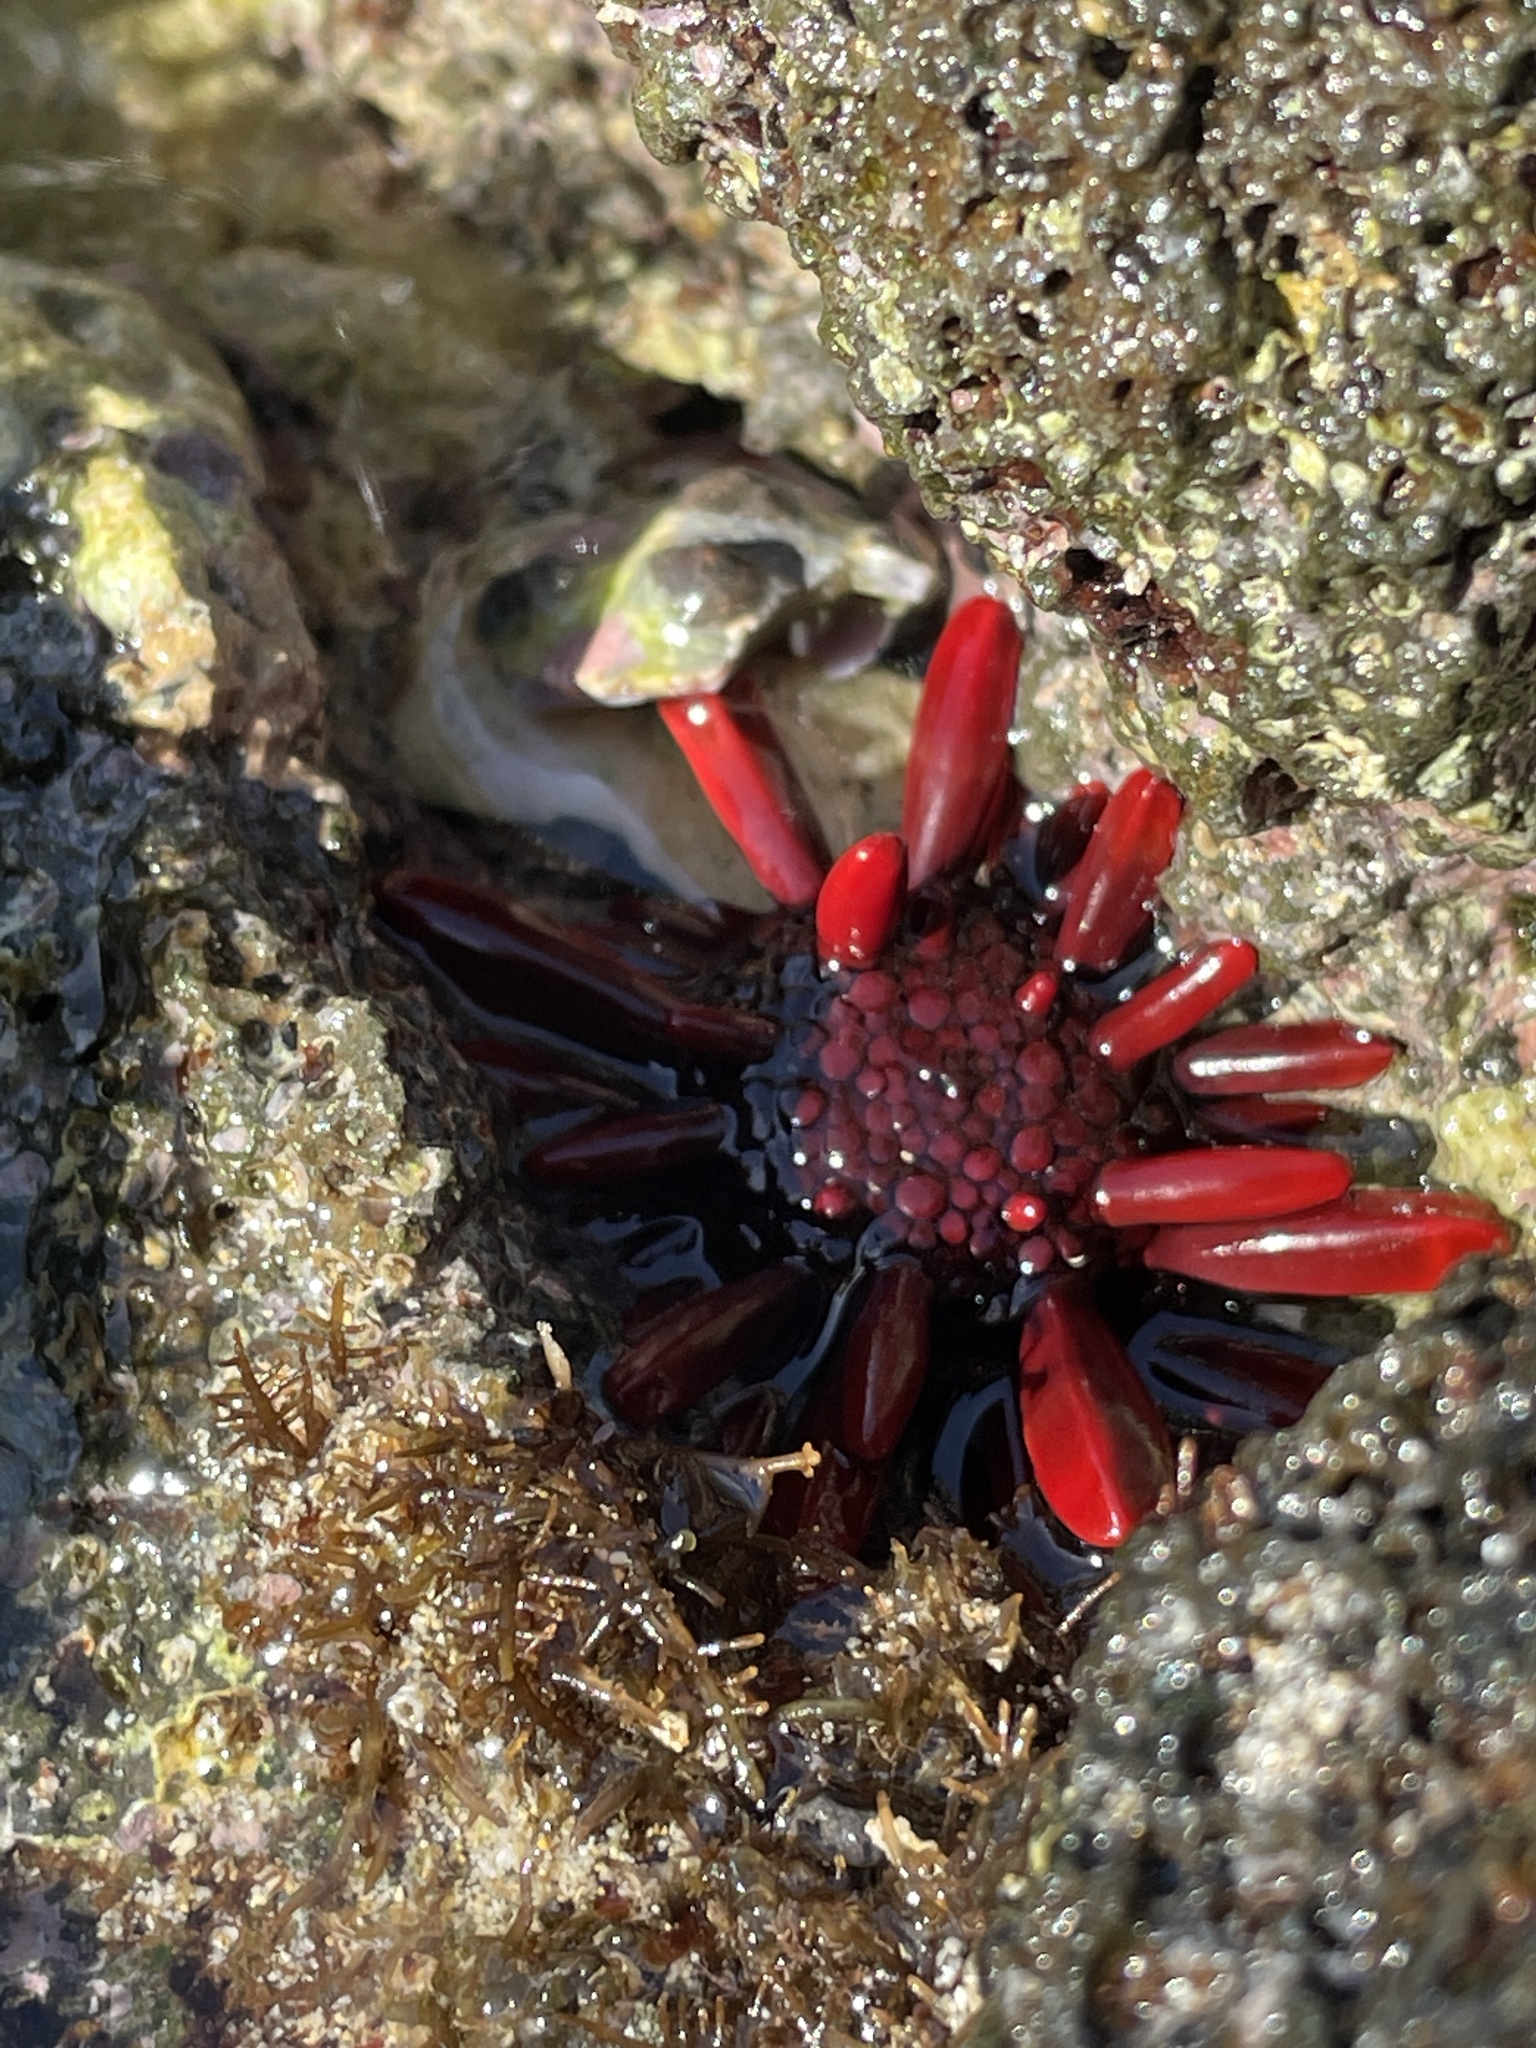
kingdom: Animalia
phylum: Echinodermata
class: Echinoidea
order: Camarodonta
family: Echinometridae
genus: Heterocentrotus
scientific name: Heterocentrotus mamillatus
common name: Slate pencil urchin
